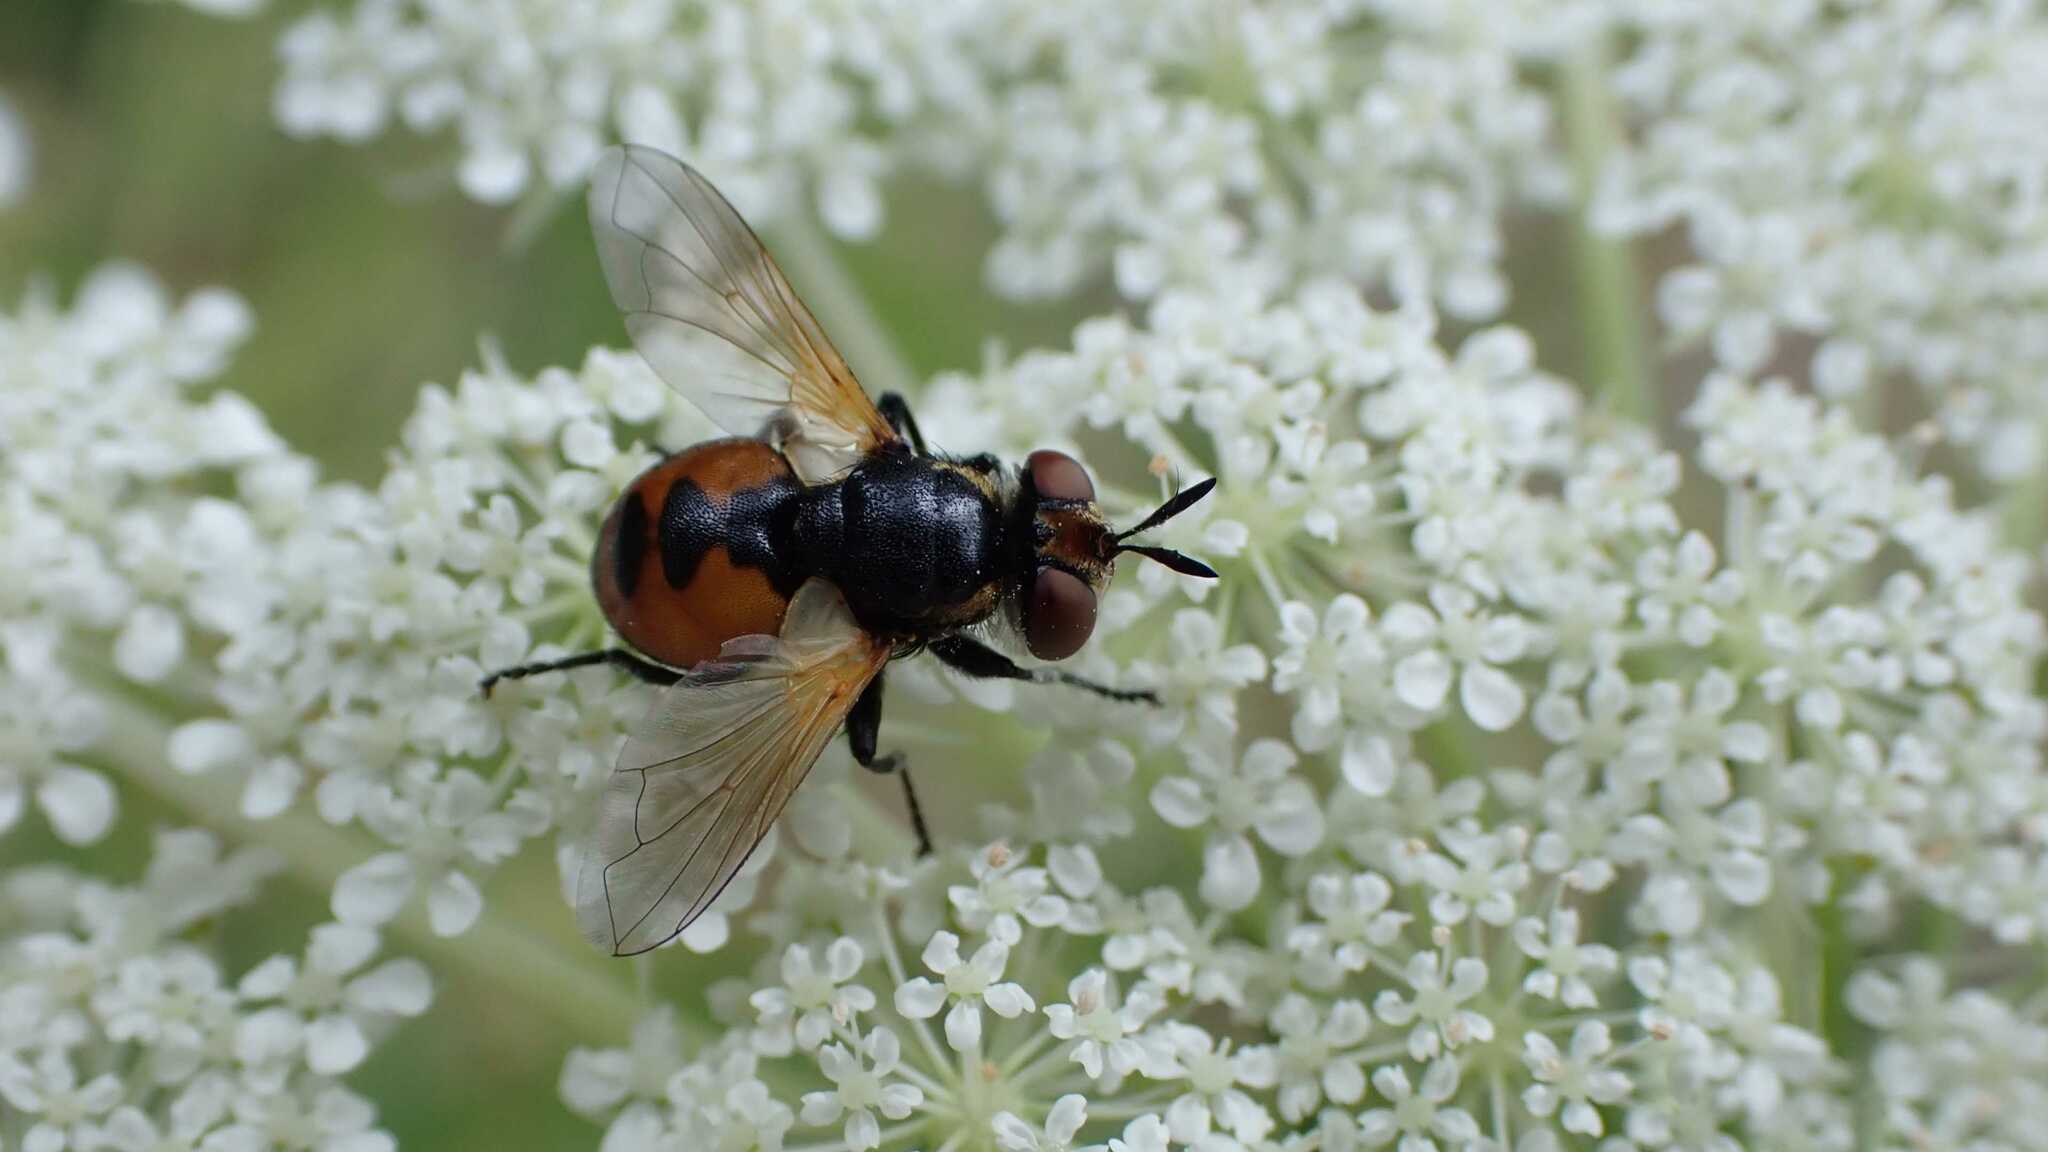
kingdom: Animalia
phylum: Arthropoda
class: Insecta
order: Diptera
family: Tachinidae
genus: Gymnosoma
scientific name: Gymnosoma
